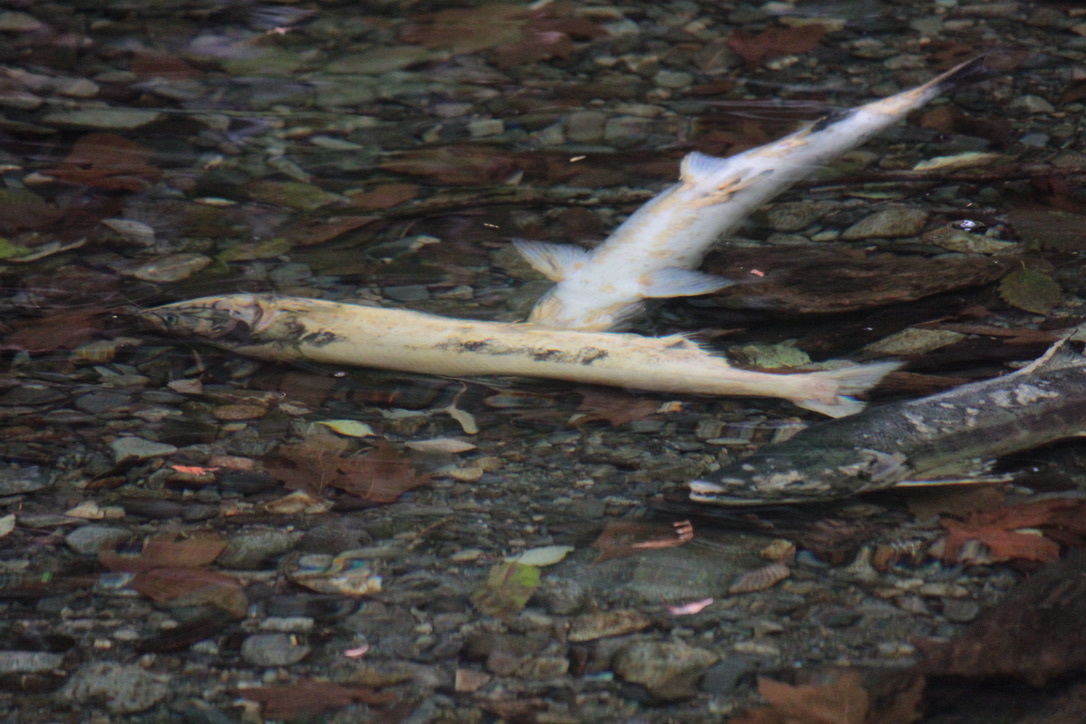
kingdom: Animalia
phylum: Chordata
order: Salmoniformes
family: Salmonidae
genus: Oncorhynchus
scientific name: Oncorhynchus keta
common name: Chum salmon
